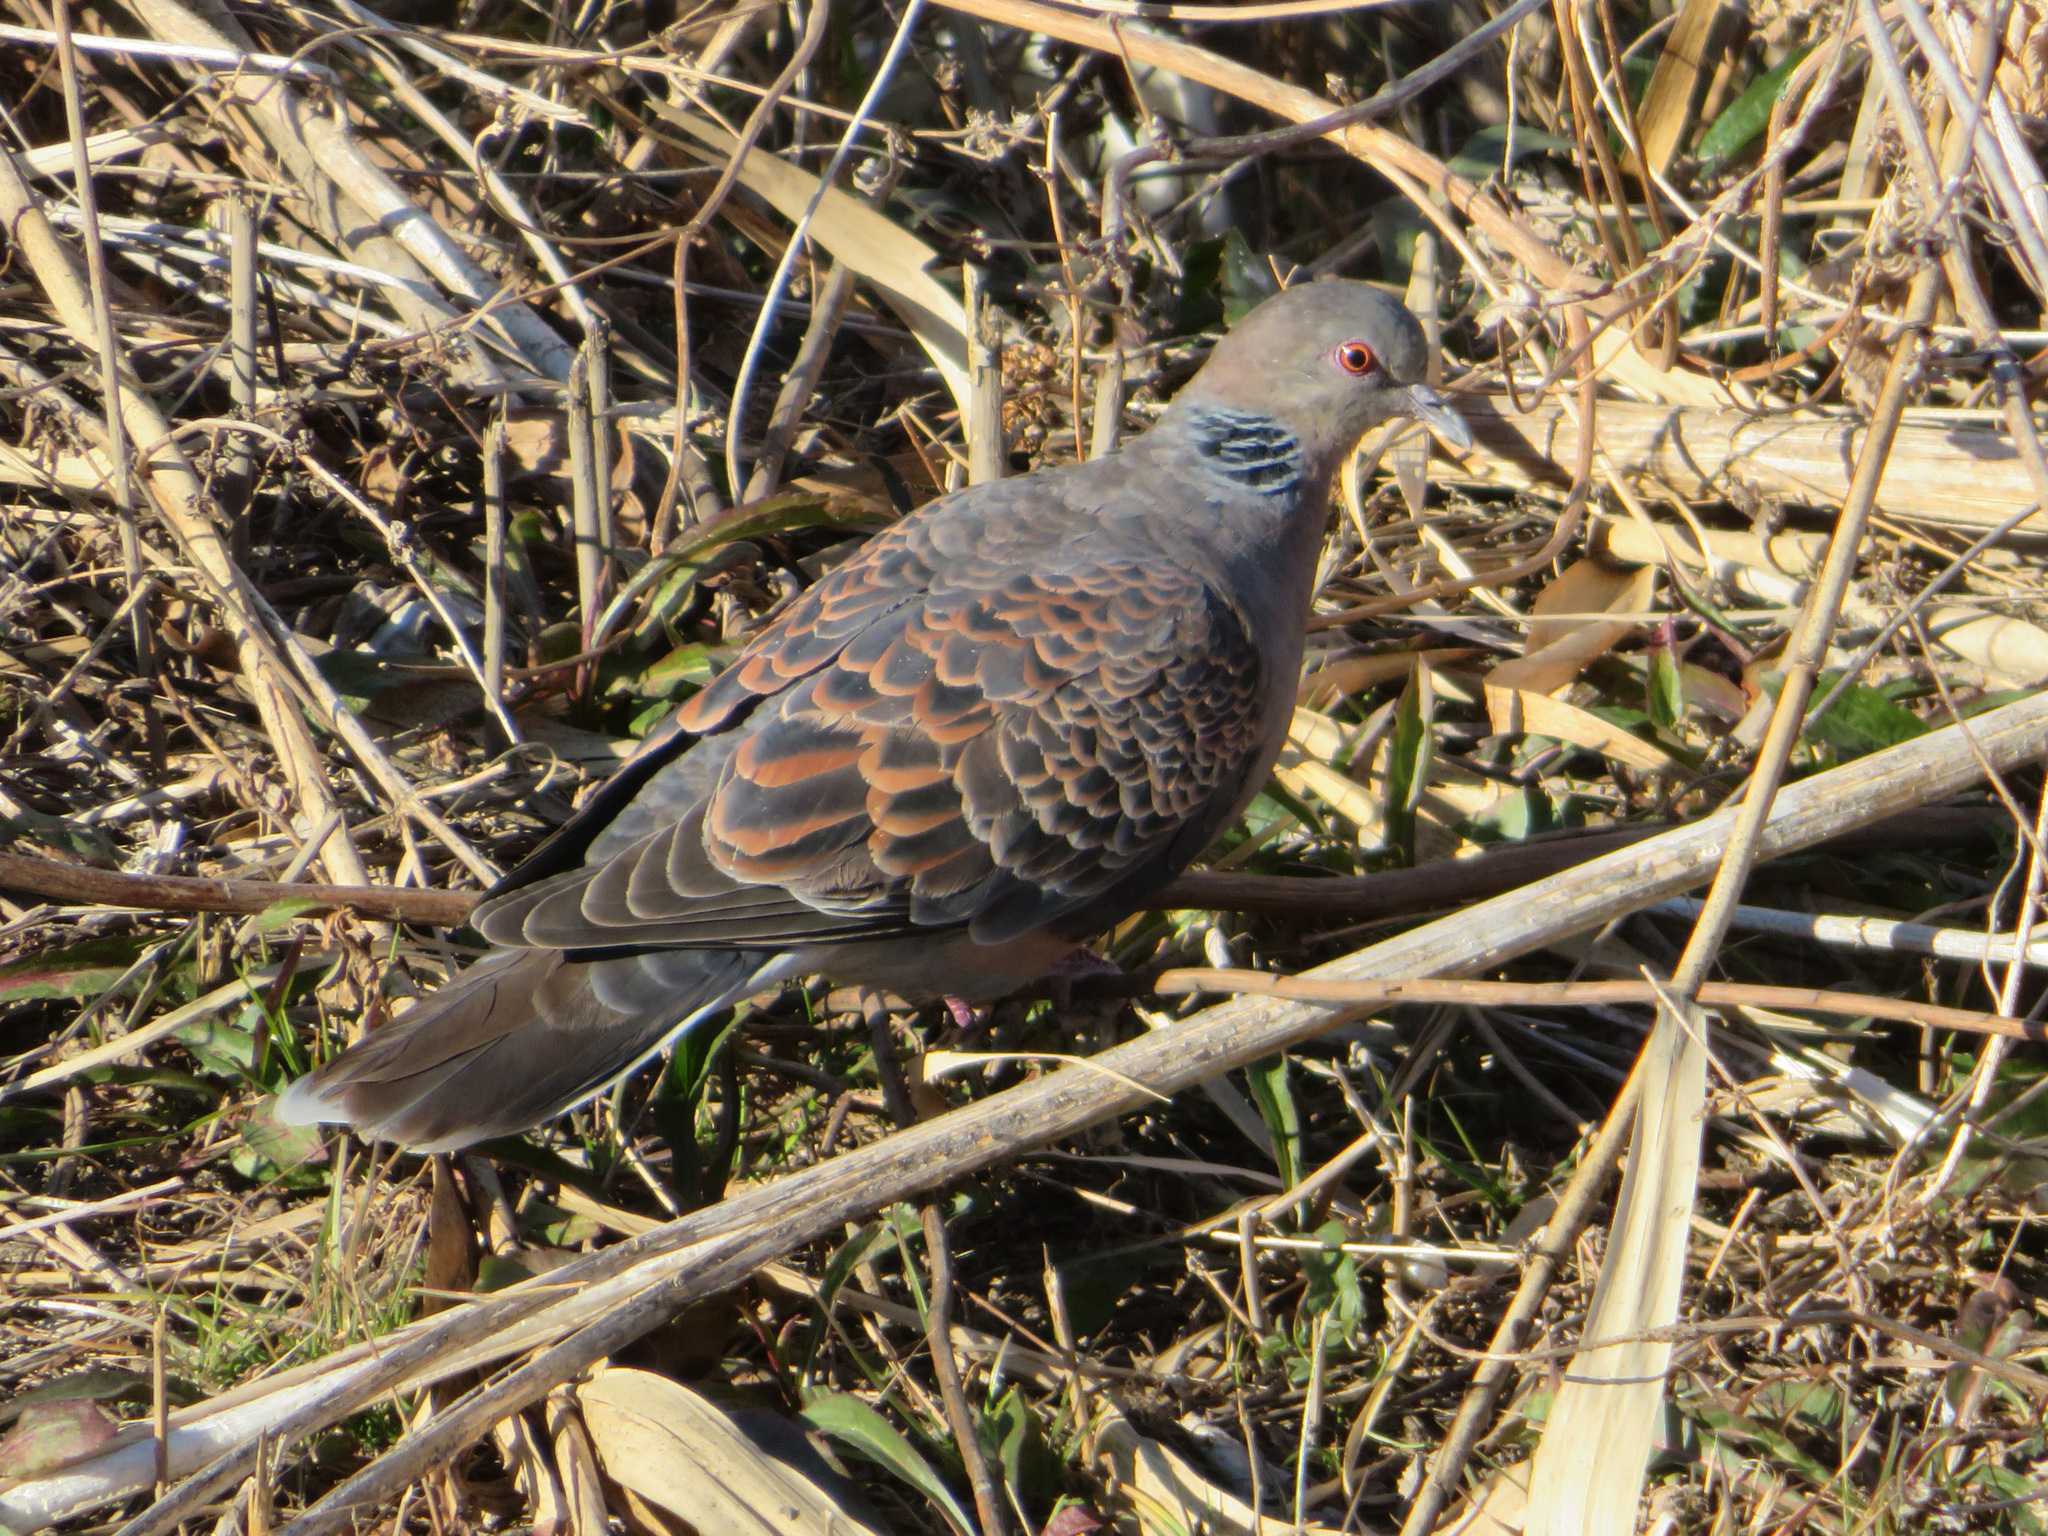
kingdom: Animalia
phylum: Chordata
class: Aves
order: Columbiformes
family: Columbidae
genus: Streptopelia
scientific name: Streptopelia orientalis
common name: Oriental turtle dove
